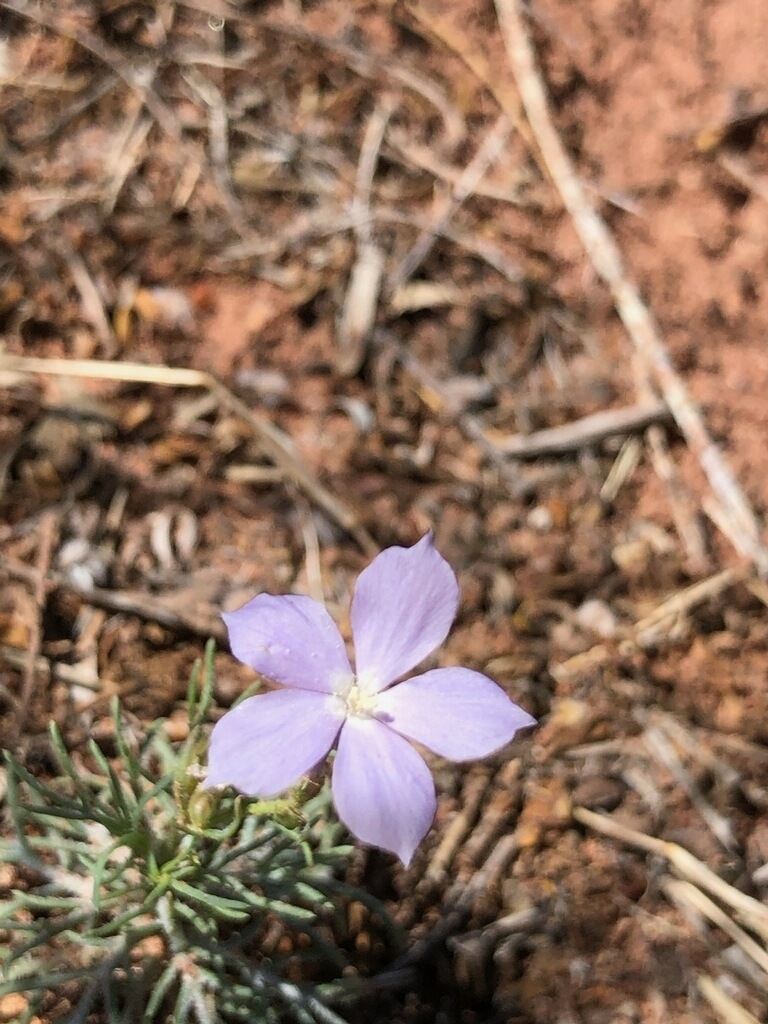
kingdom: Plantae
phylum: Tracheophyta
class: Magnoliopsida
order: Ericales
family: Polemoniaceae
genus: Ipomopsis
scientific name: Ipomopsis longiflora
